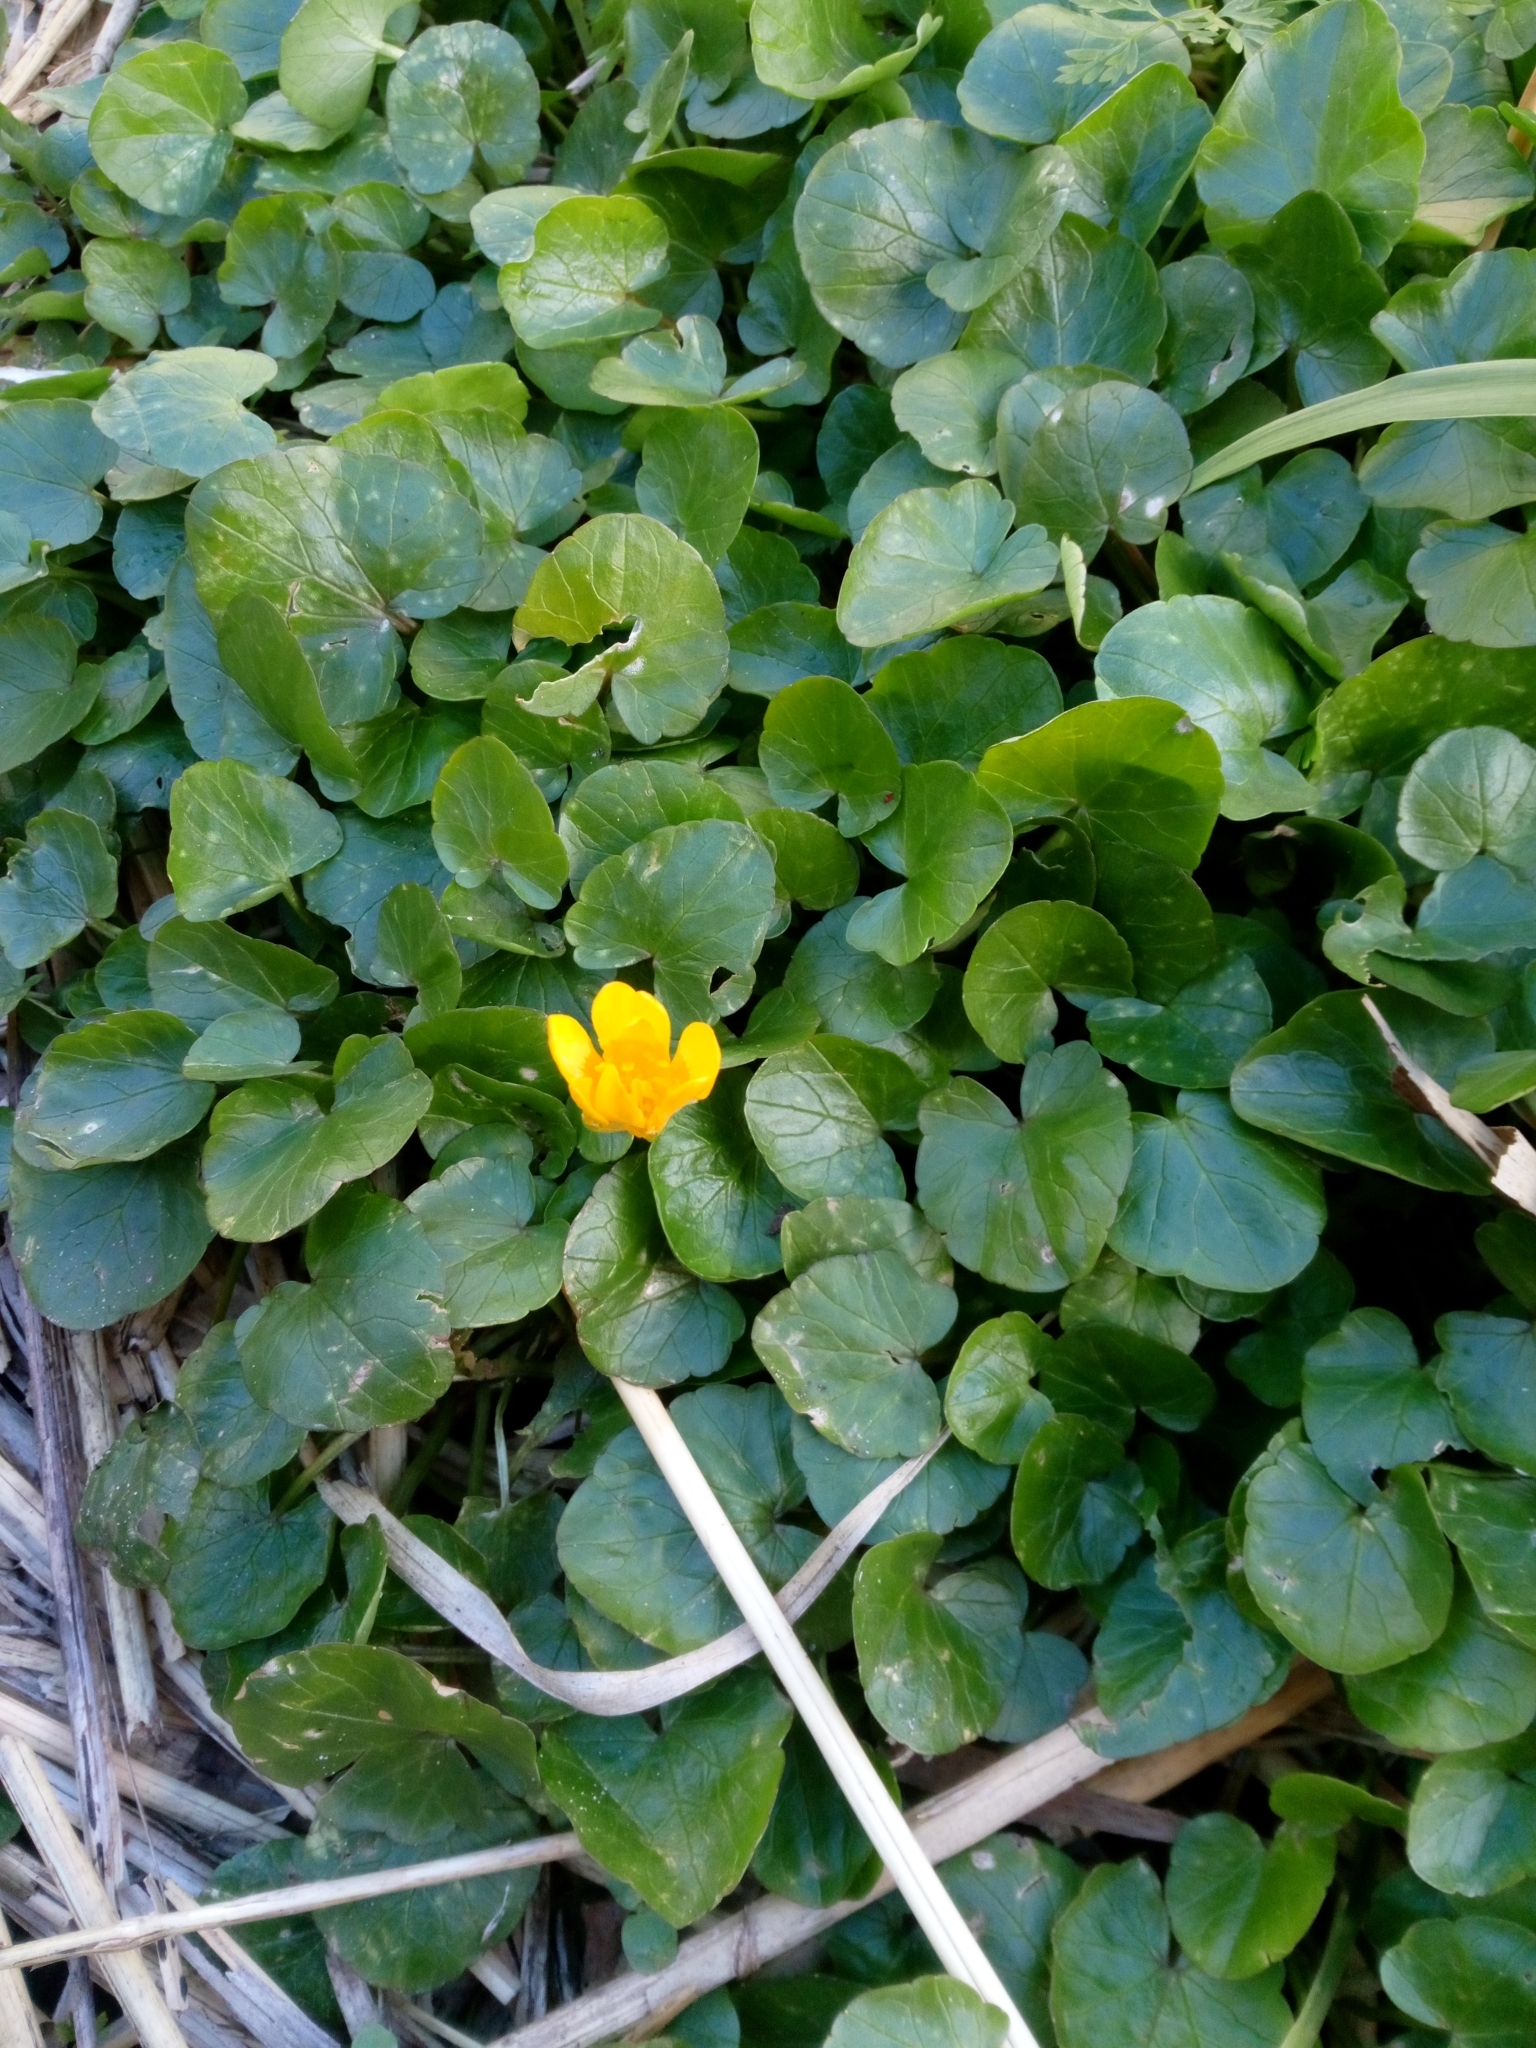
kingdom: Plantae
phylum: Tracheophyta
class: Magnoliopsida
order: Ranunculales
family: Ranunculaceae
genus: Ficaria
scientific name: Ficaria verna
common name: Lesser celandine
